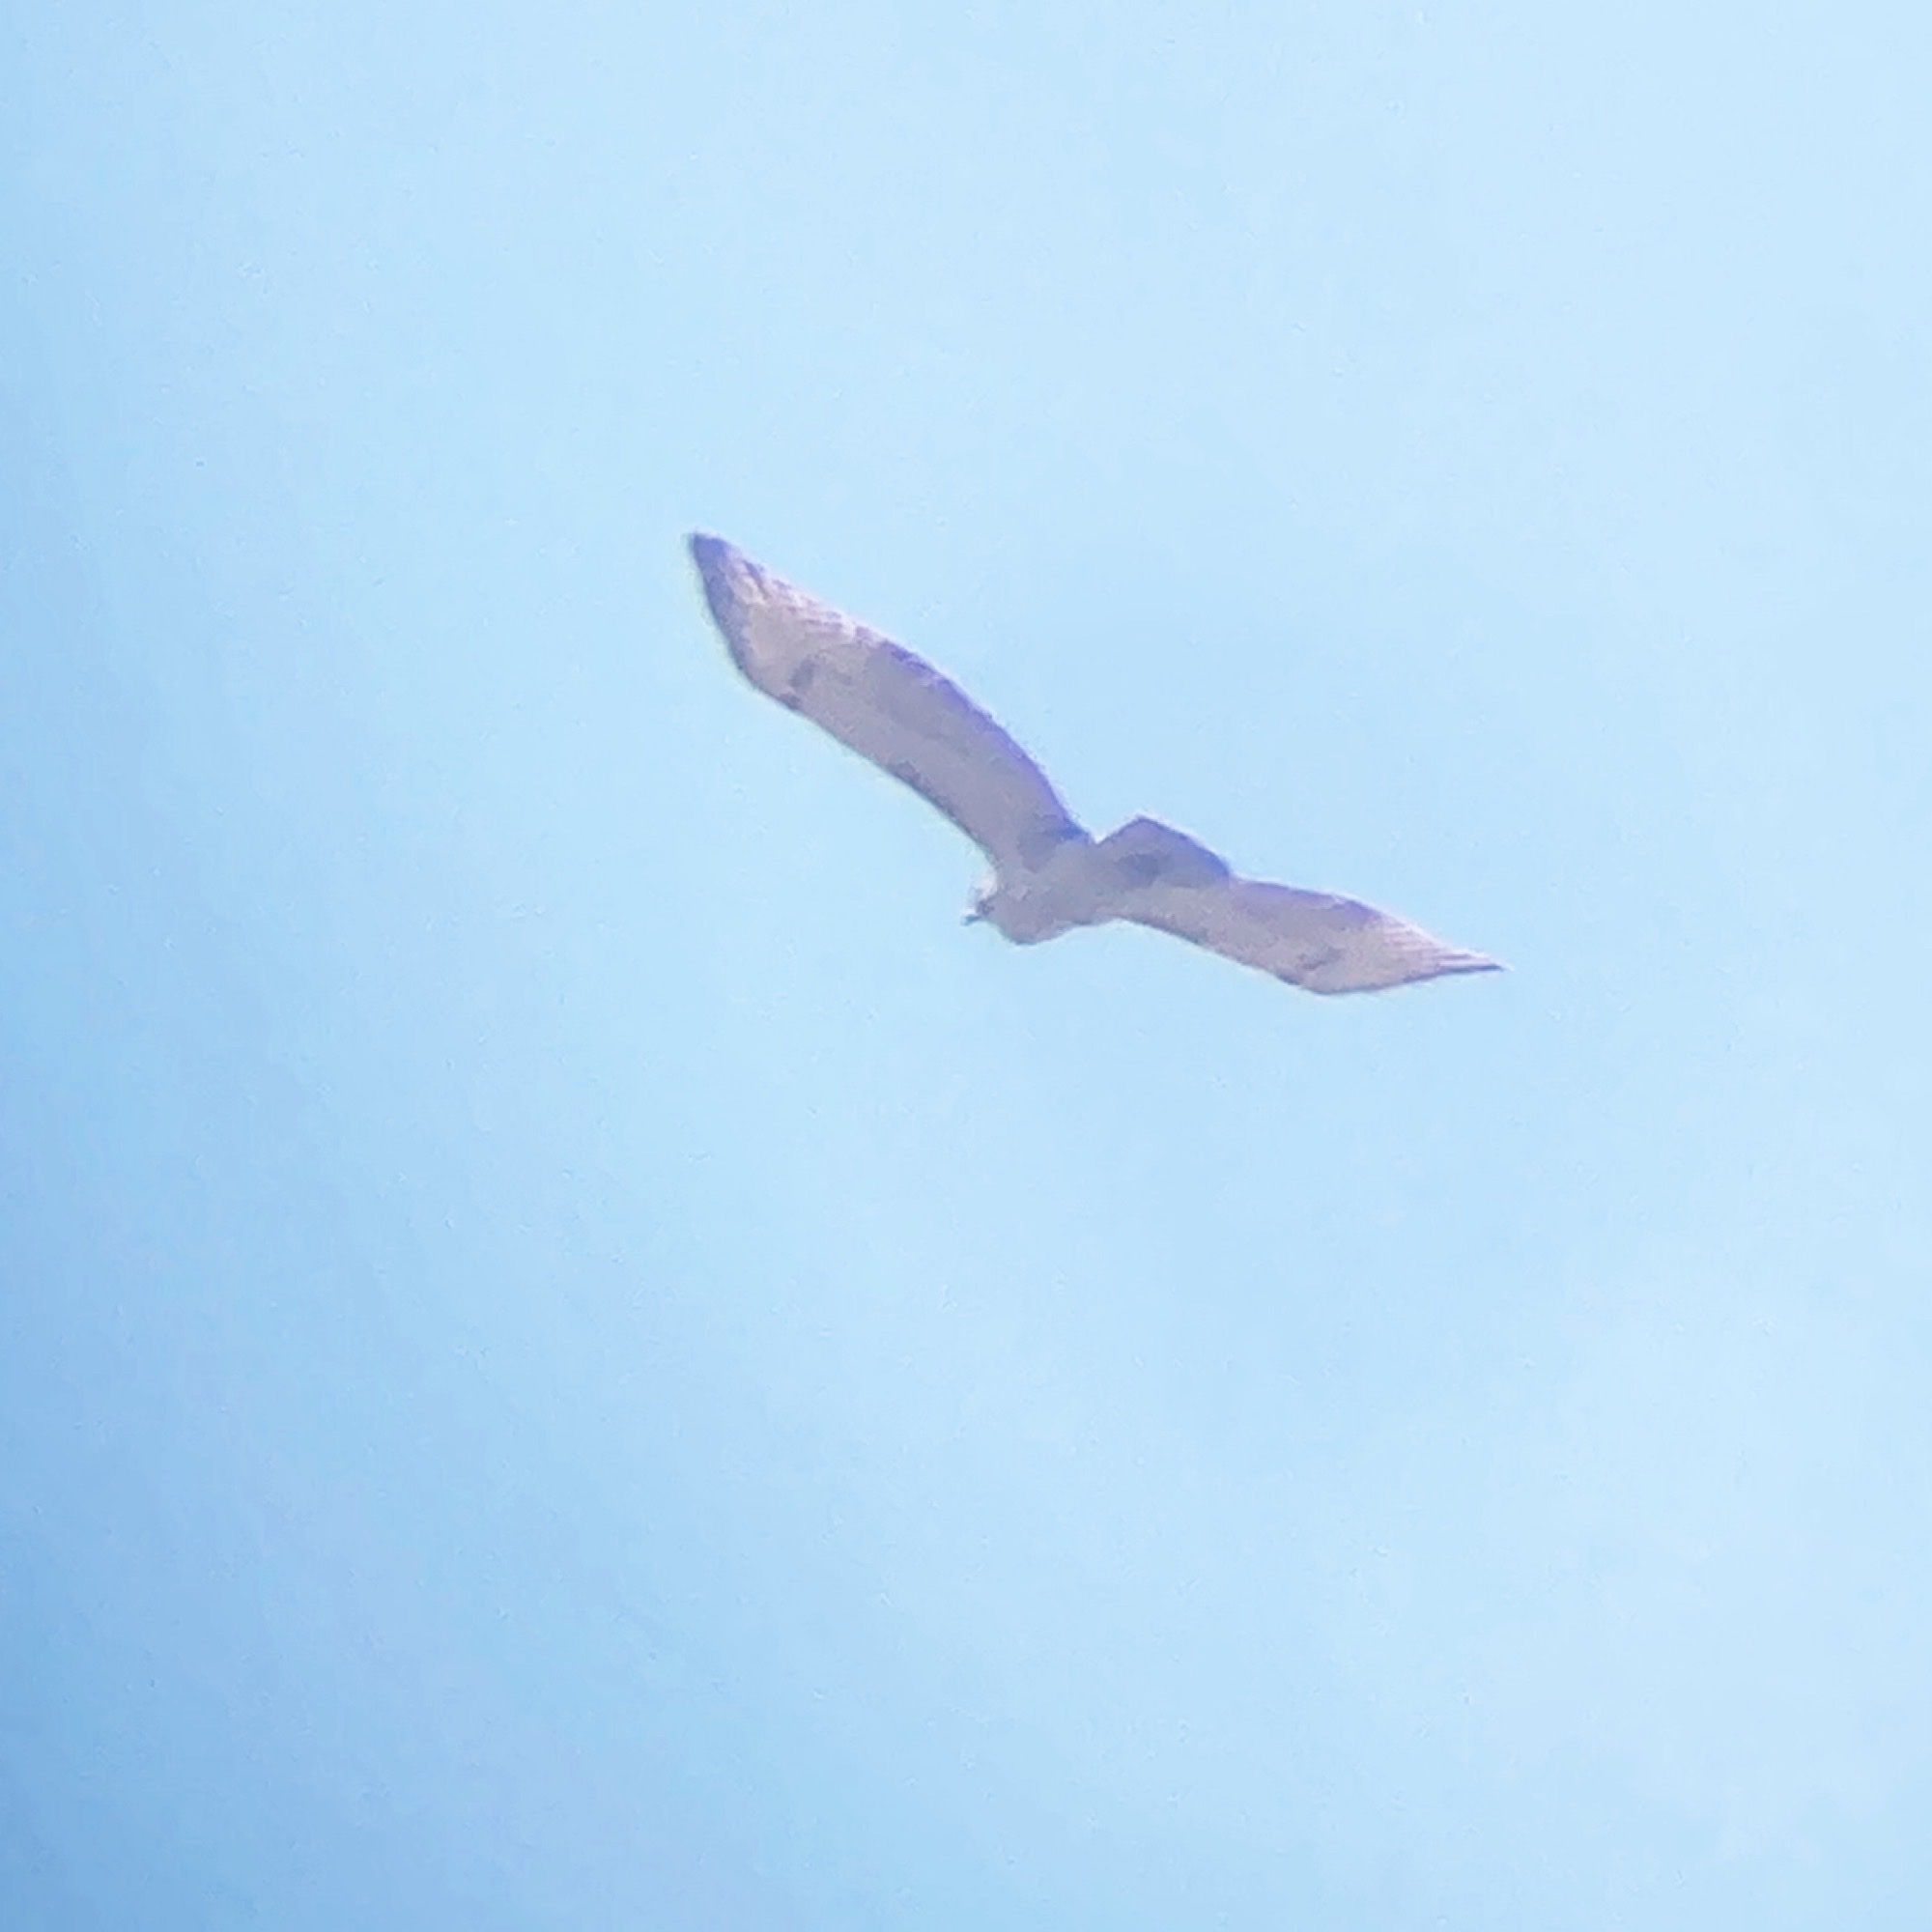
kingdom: Animalia
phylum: Chordata
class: Aves
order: Accipitriformes
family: Accipitridae
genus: Buteo
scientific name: Buteo jamaicensis
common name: Red-tailed hawk
